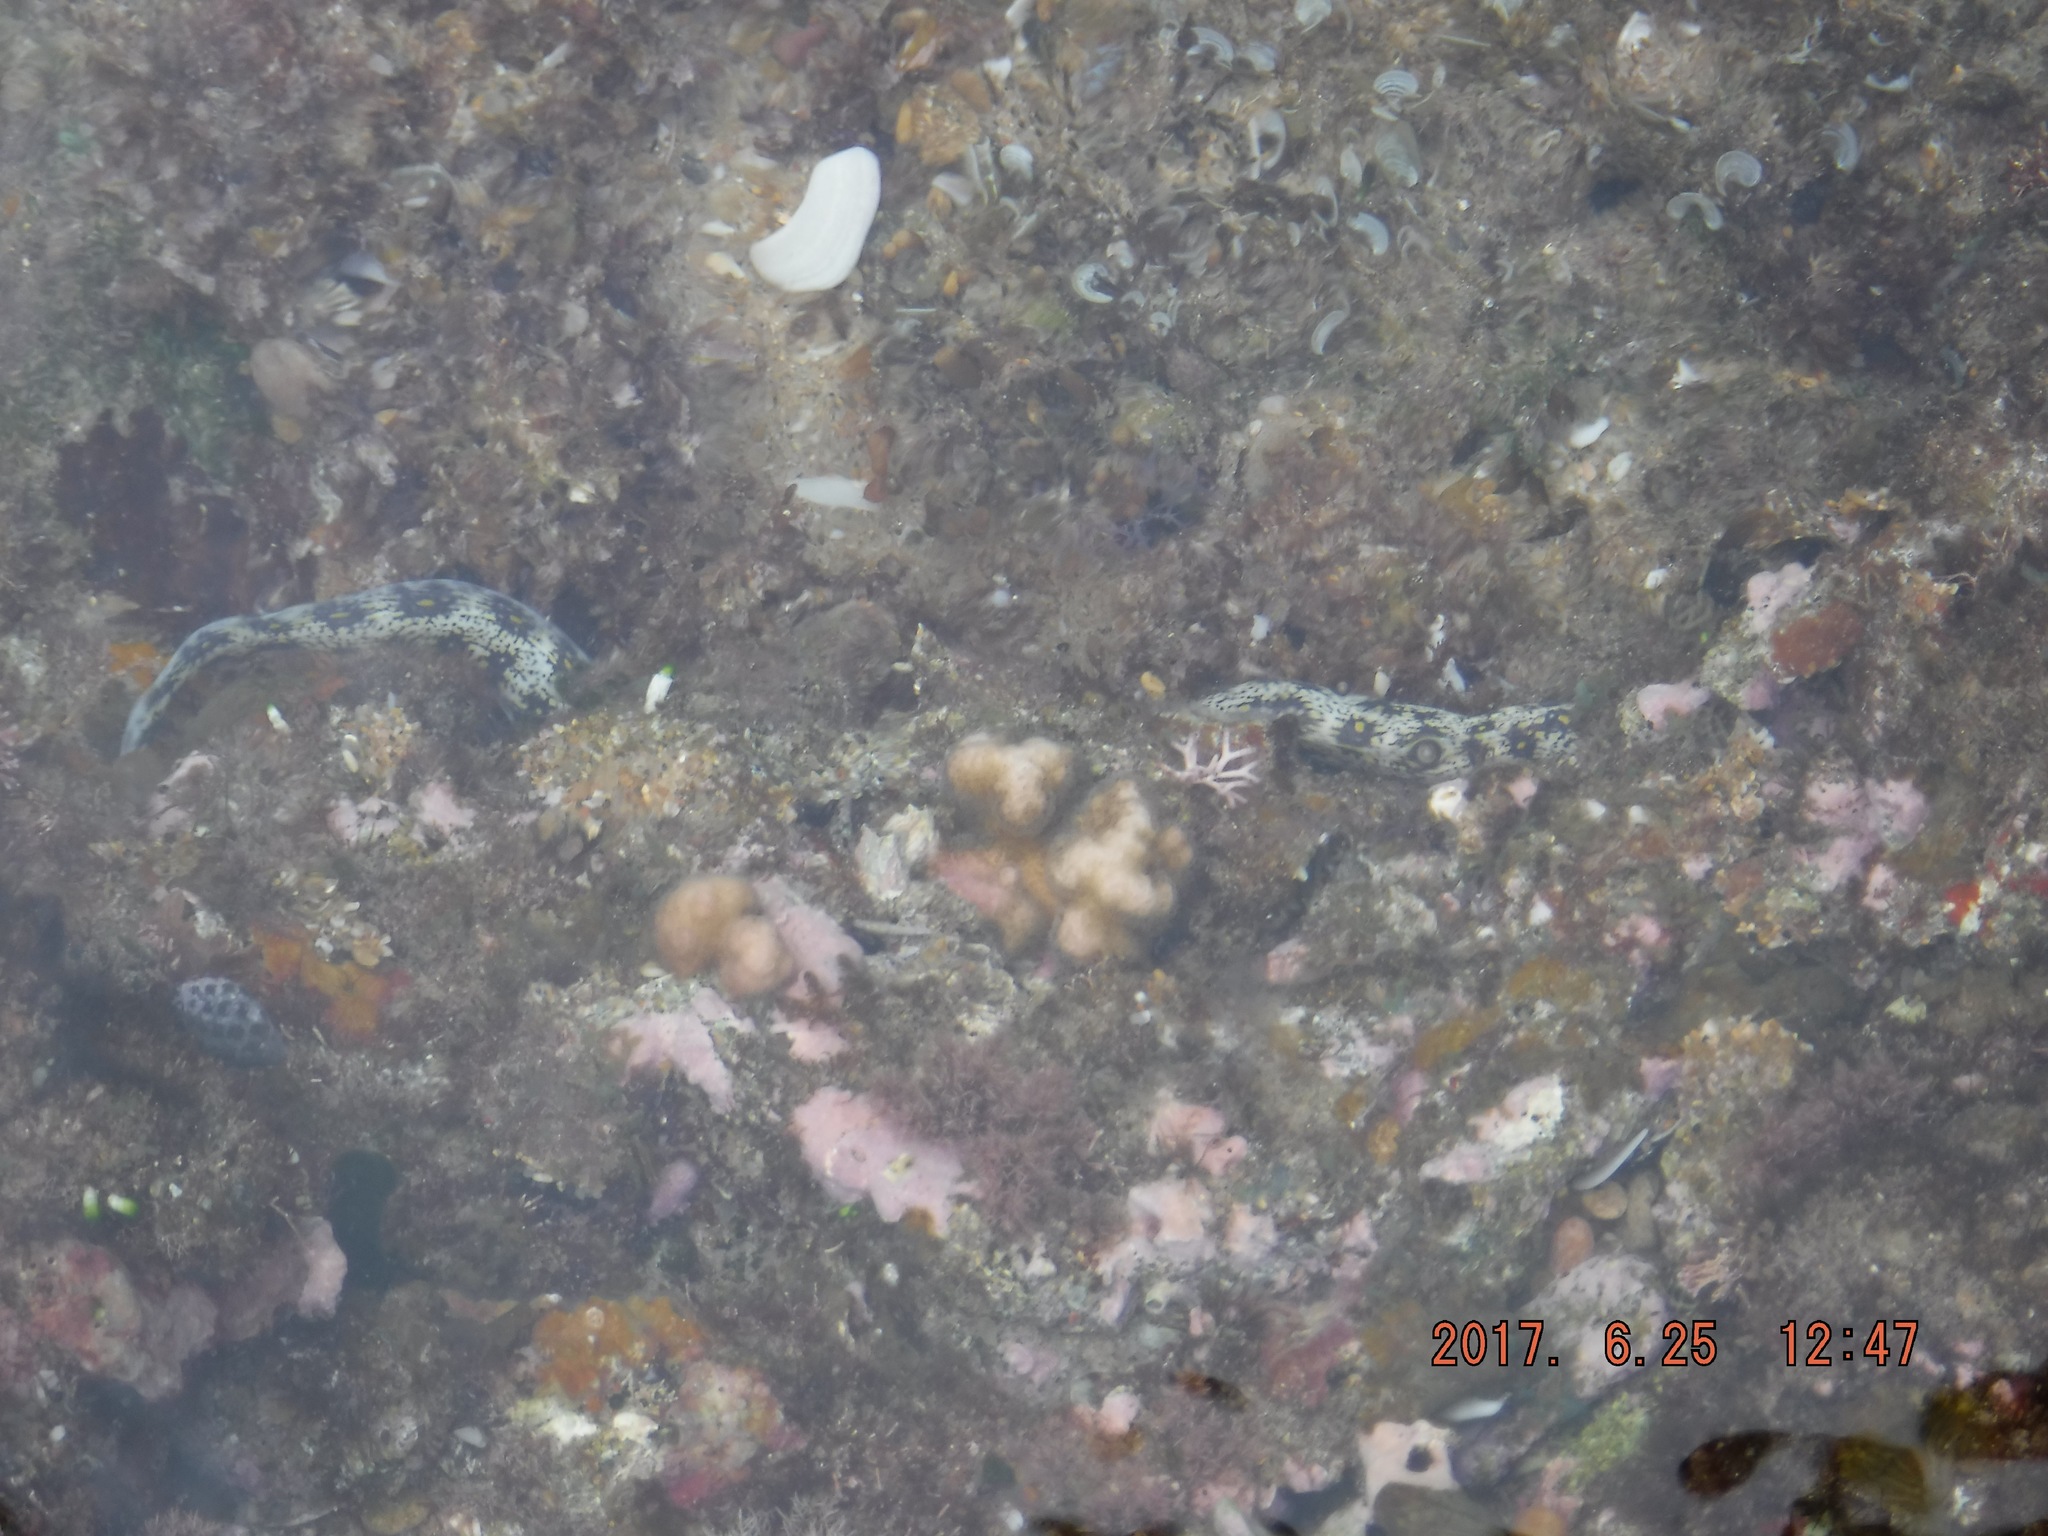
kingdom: Animalia
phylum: Chordata
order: Anguilliformes
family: Muraenidae
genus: Echidna
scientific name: Echidna nebulosa
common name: Snowflake moray
